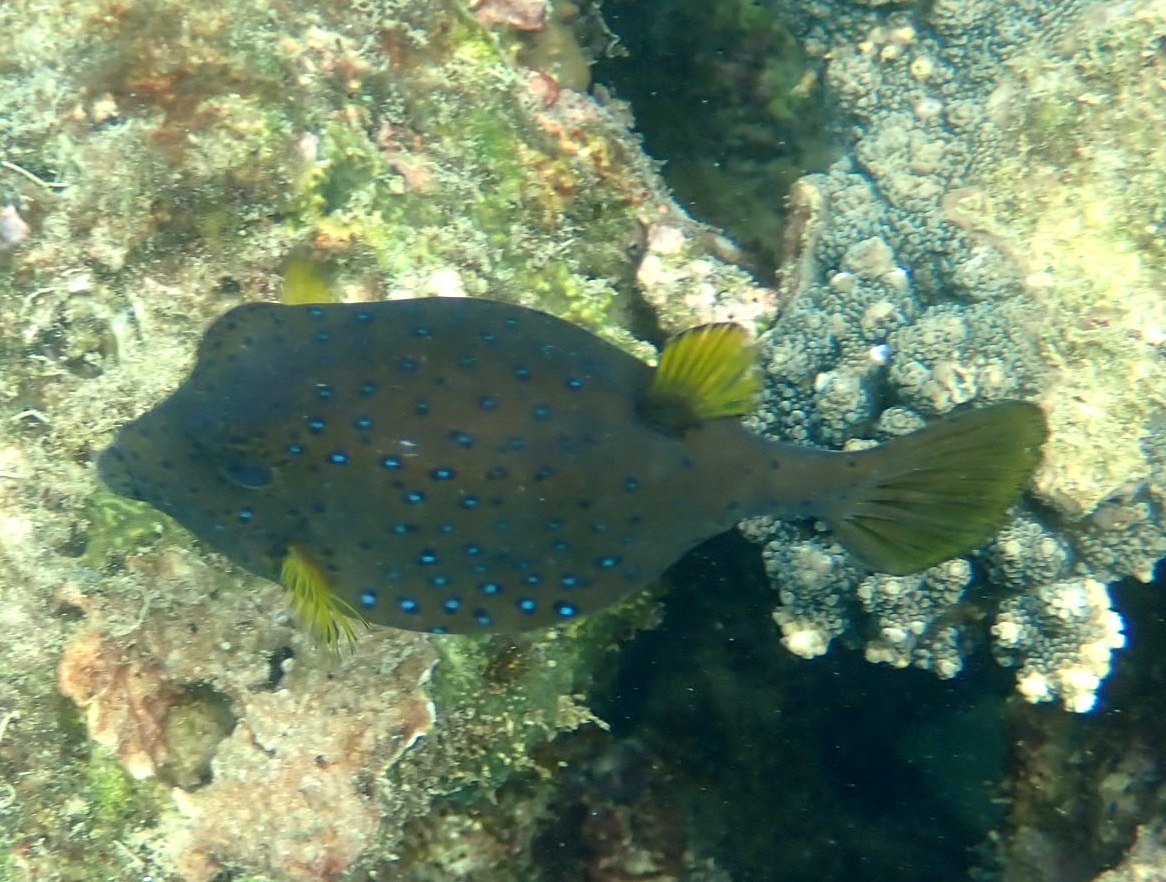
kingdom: Animalia
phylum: Chordata
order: Tetraodontiformes
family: Ostraciidae
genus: Ostracion
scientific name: Ostracion cubicus
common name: Cube trunkfish
